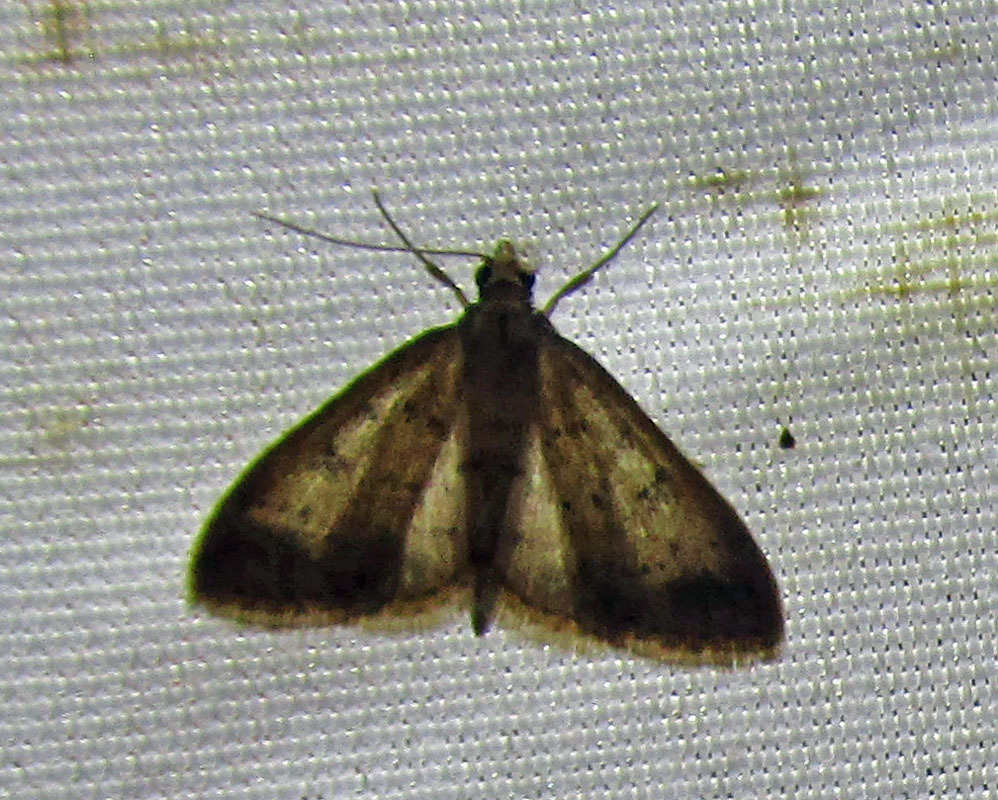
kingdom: Animalia
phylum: Arthropoda
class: Insecta
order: Lepidoptera
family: Erebidae
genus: Bleptina
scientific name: Bleptina caradrinalis
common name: Bent-winged owlet
